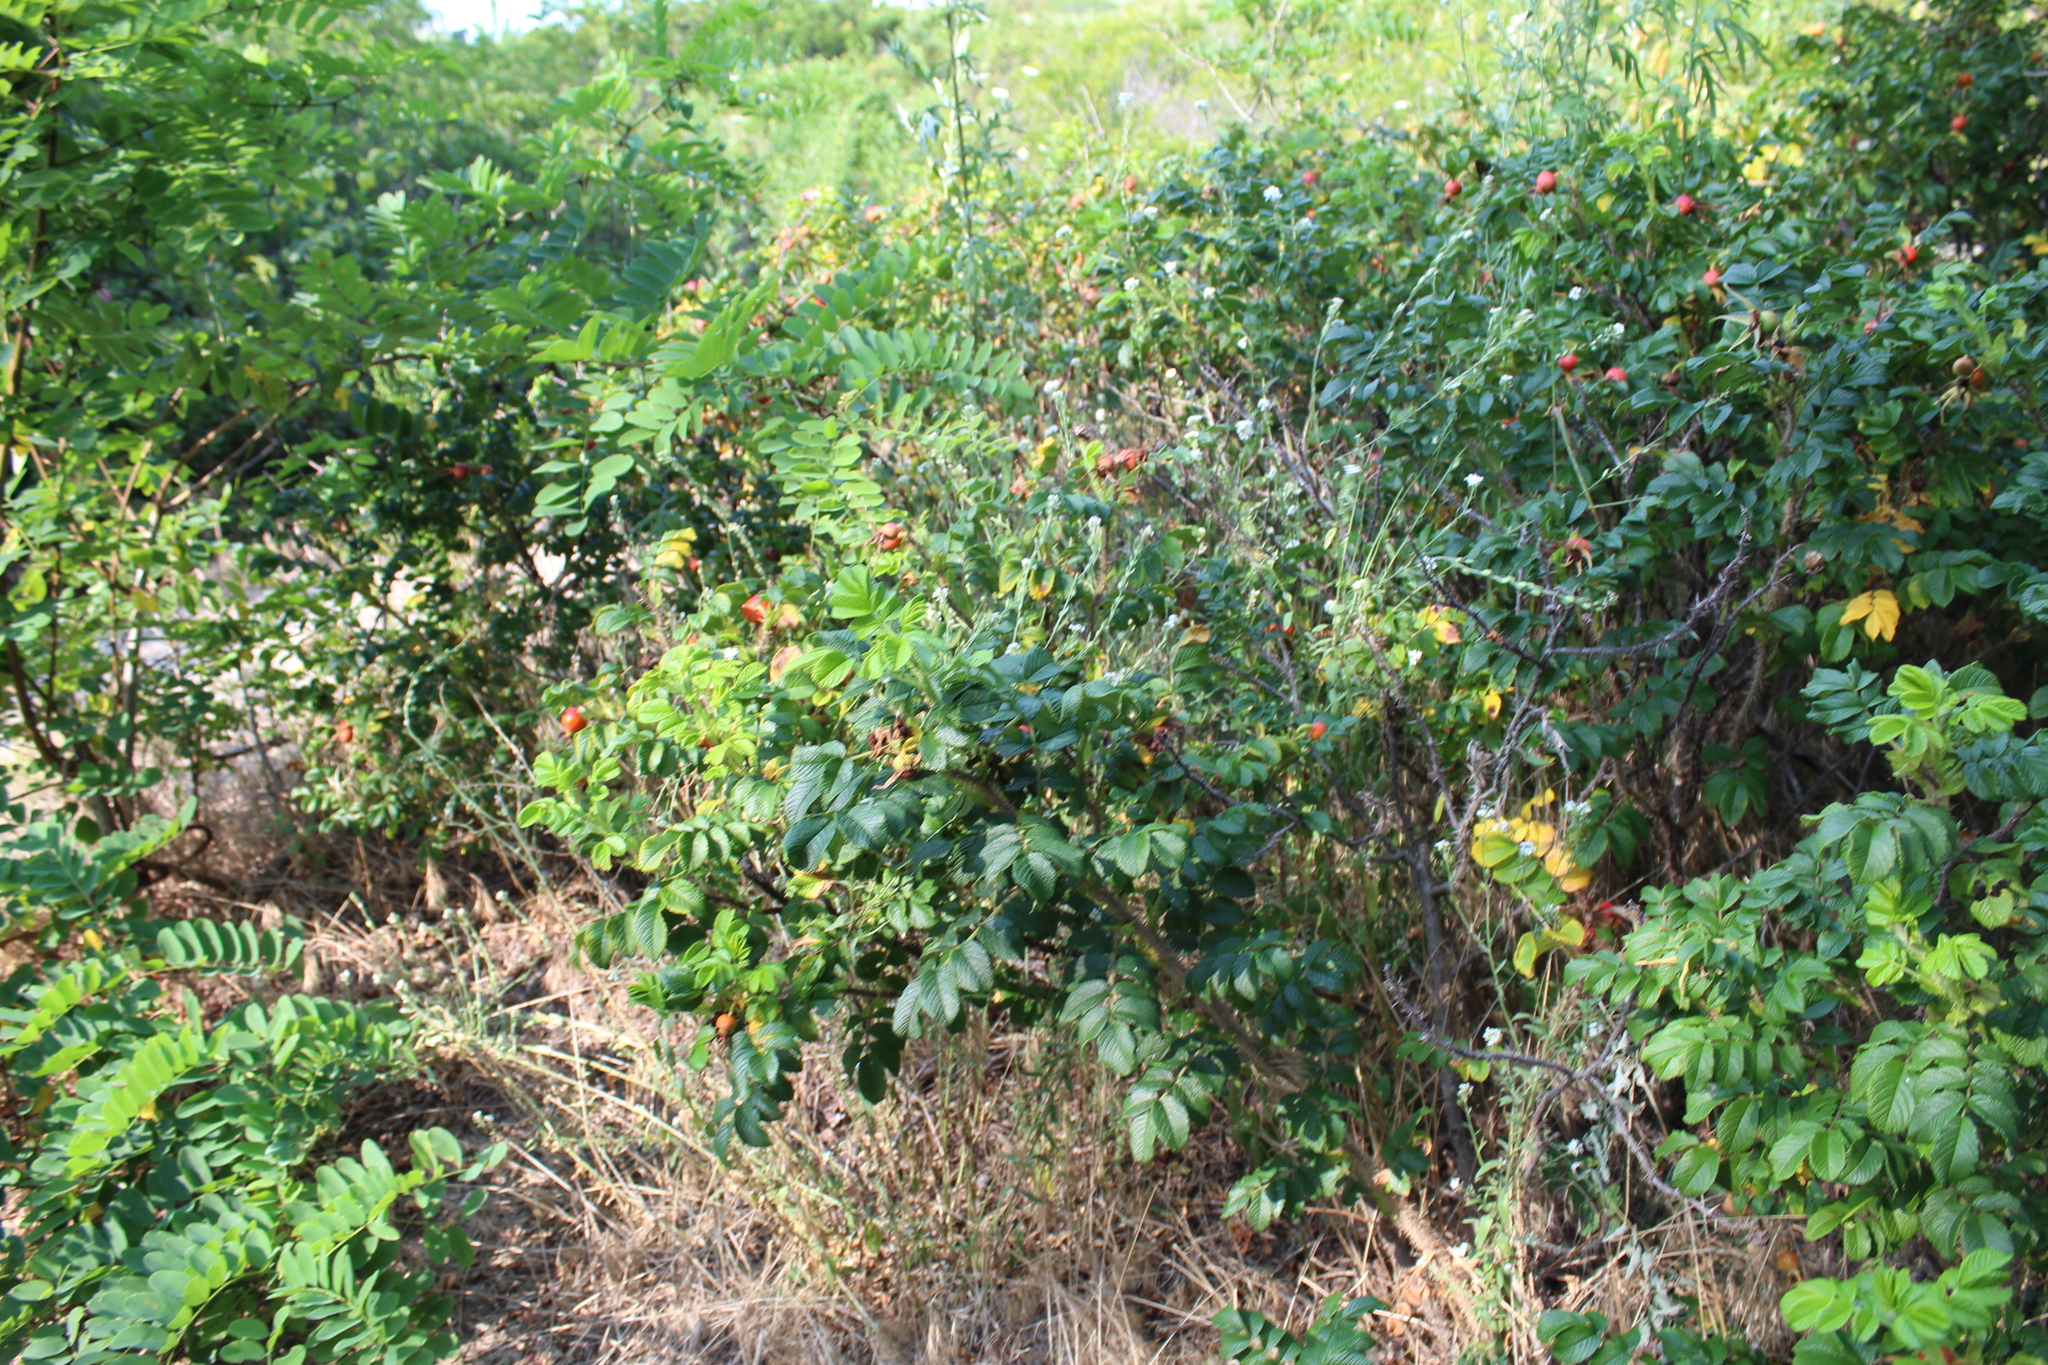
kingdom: Plantae
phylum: Tracheophyta
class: Magnoliopsida
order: Rosales
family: Rosaceae
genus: Rosa
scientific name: Rosa rugosa
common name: Japanese rose
